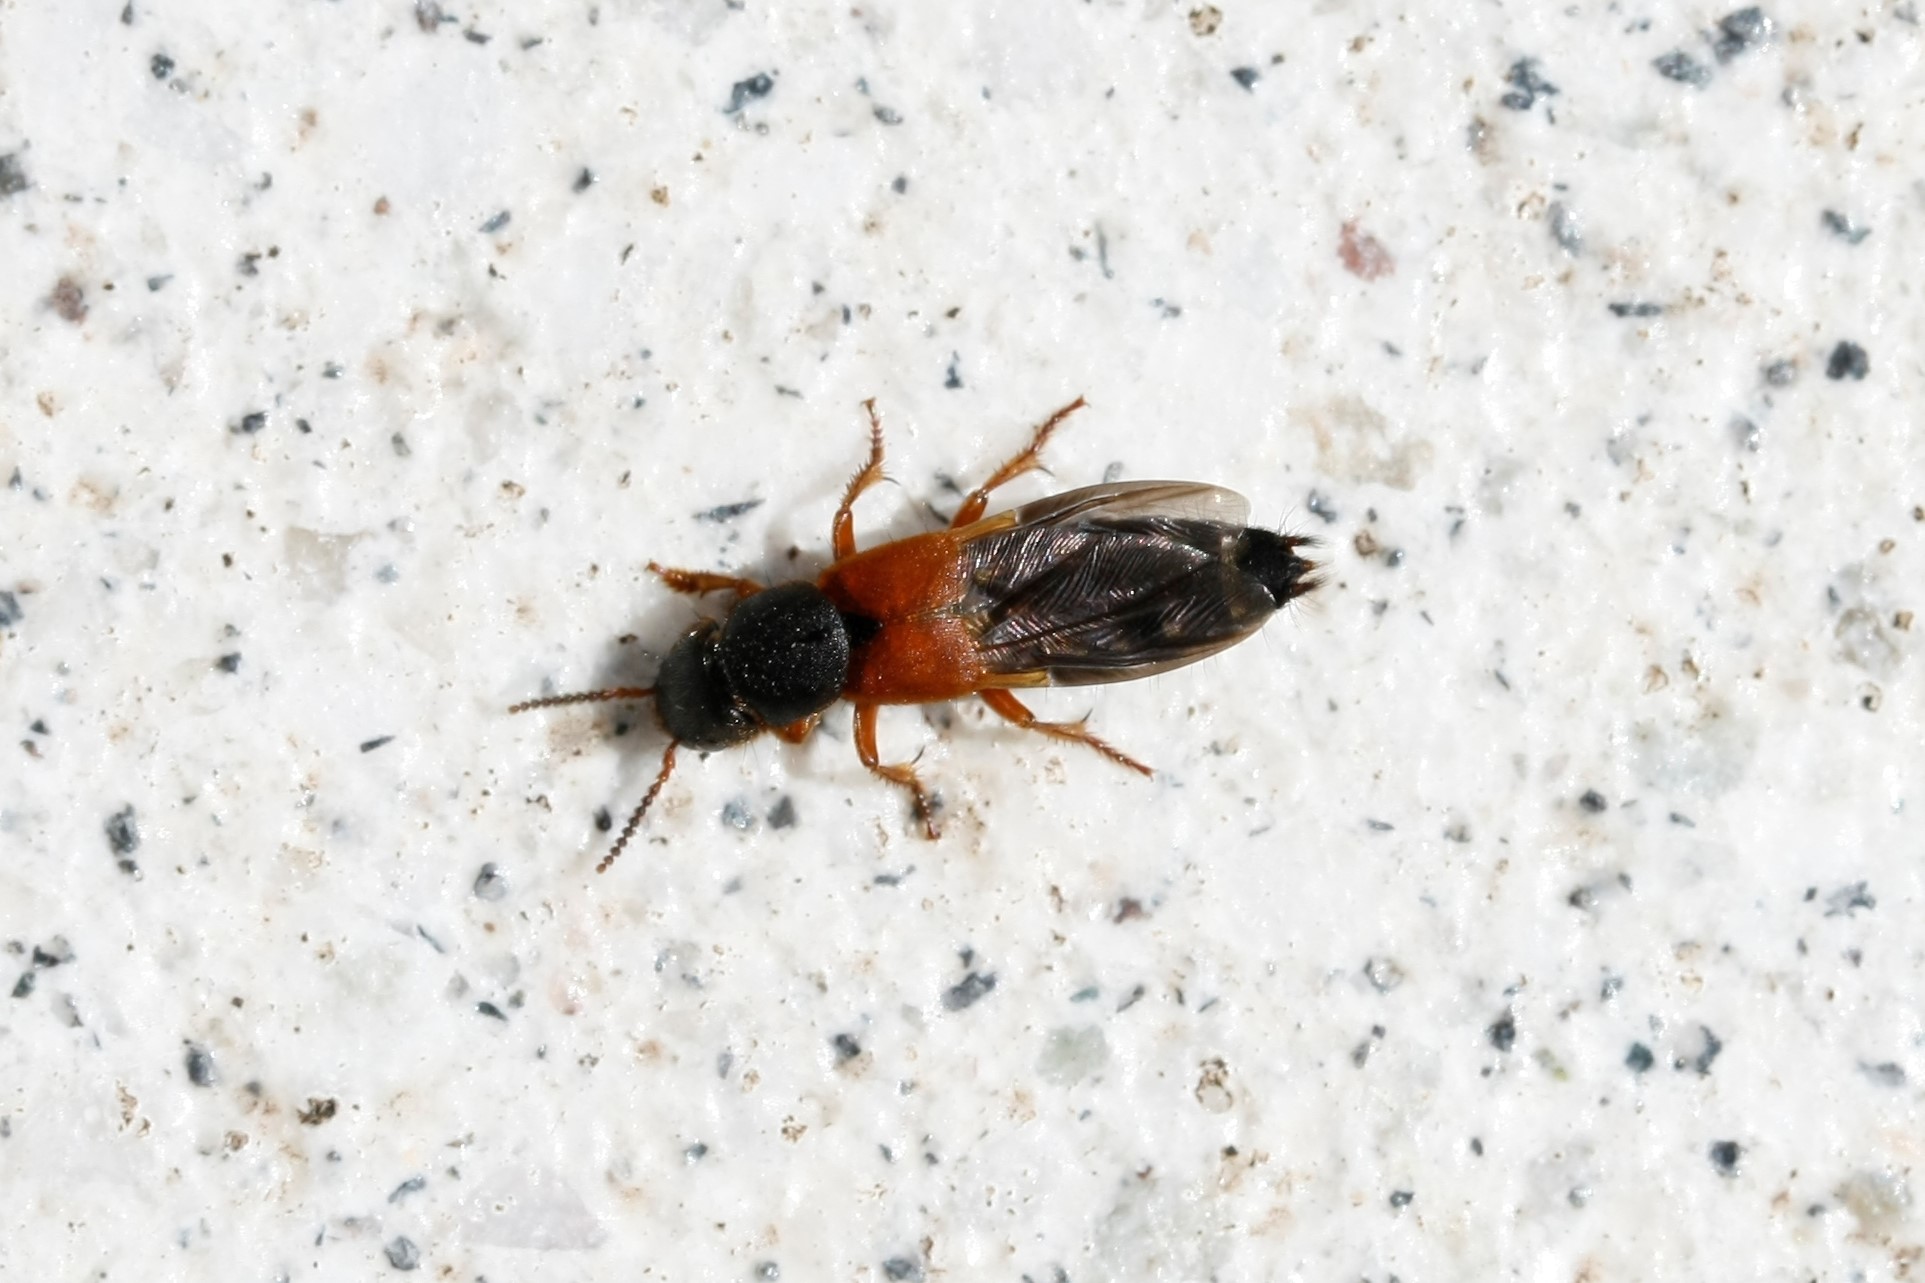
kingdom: Animalia
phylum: Arthropoda
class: Insecta
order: Coleoptera
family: Staphylinidae
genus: Platydracus
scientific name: Platydracus stercorarius
